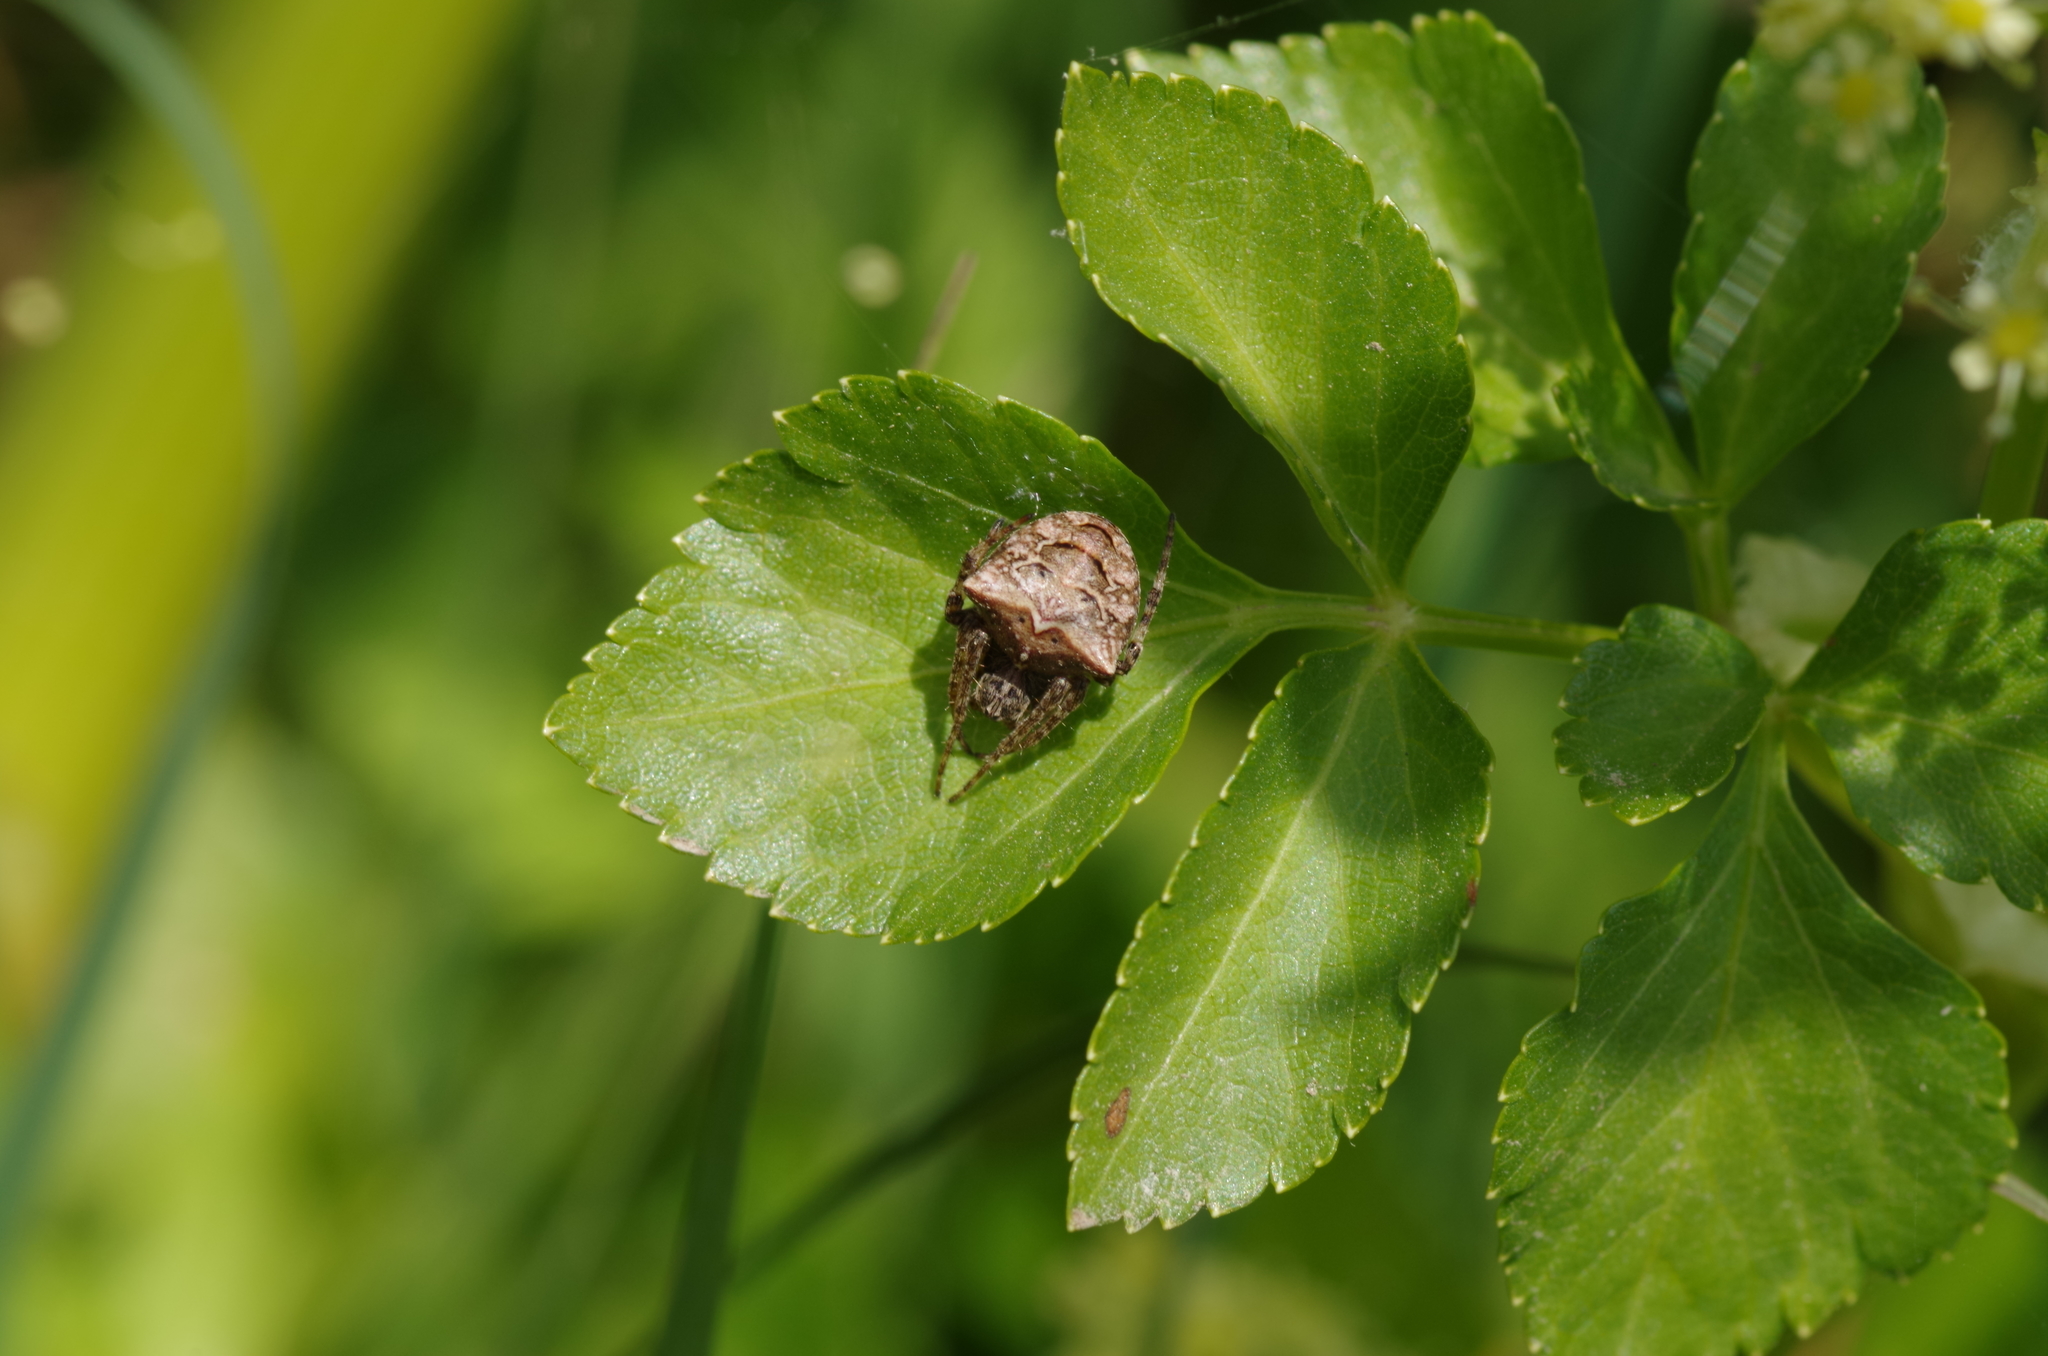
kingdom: Animalia
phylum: Arthropoda
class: Arachnida
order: Araneae
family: Araneidae
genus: Gibbaranea
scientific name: Gibbaranea bituberculata
